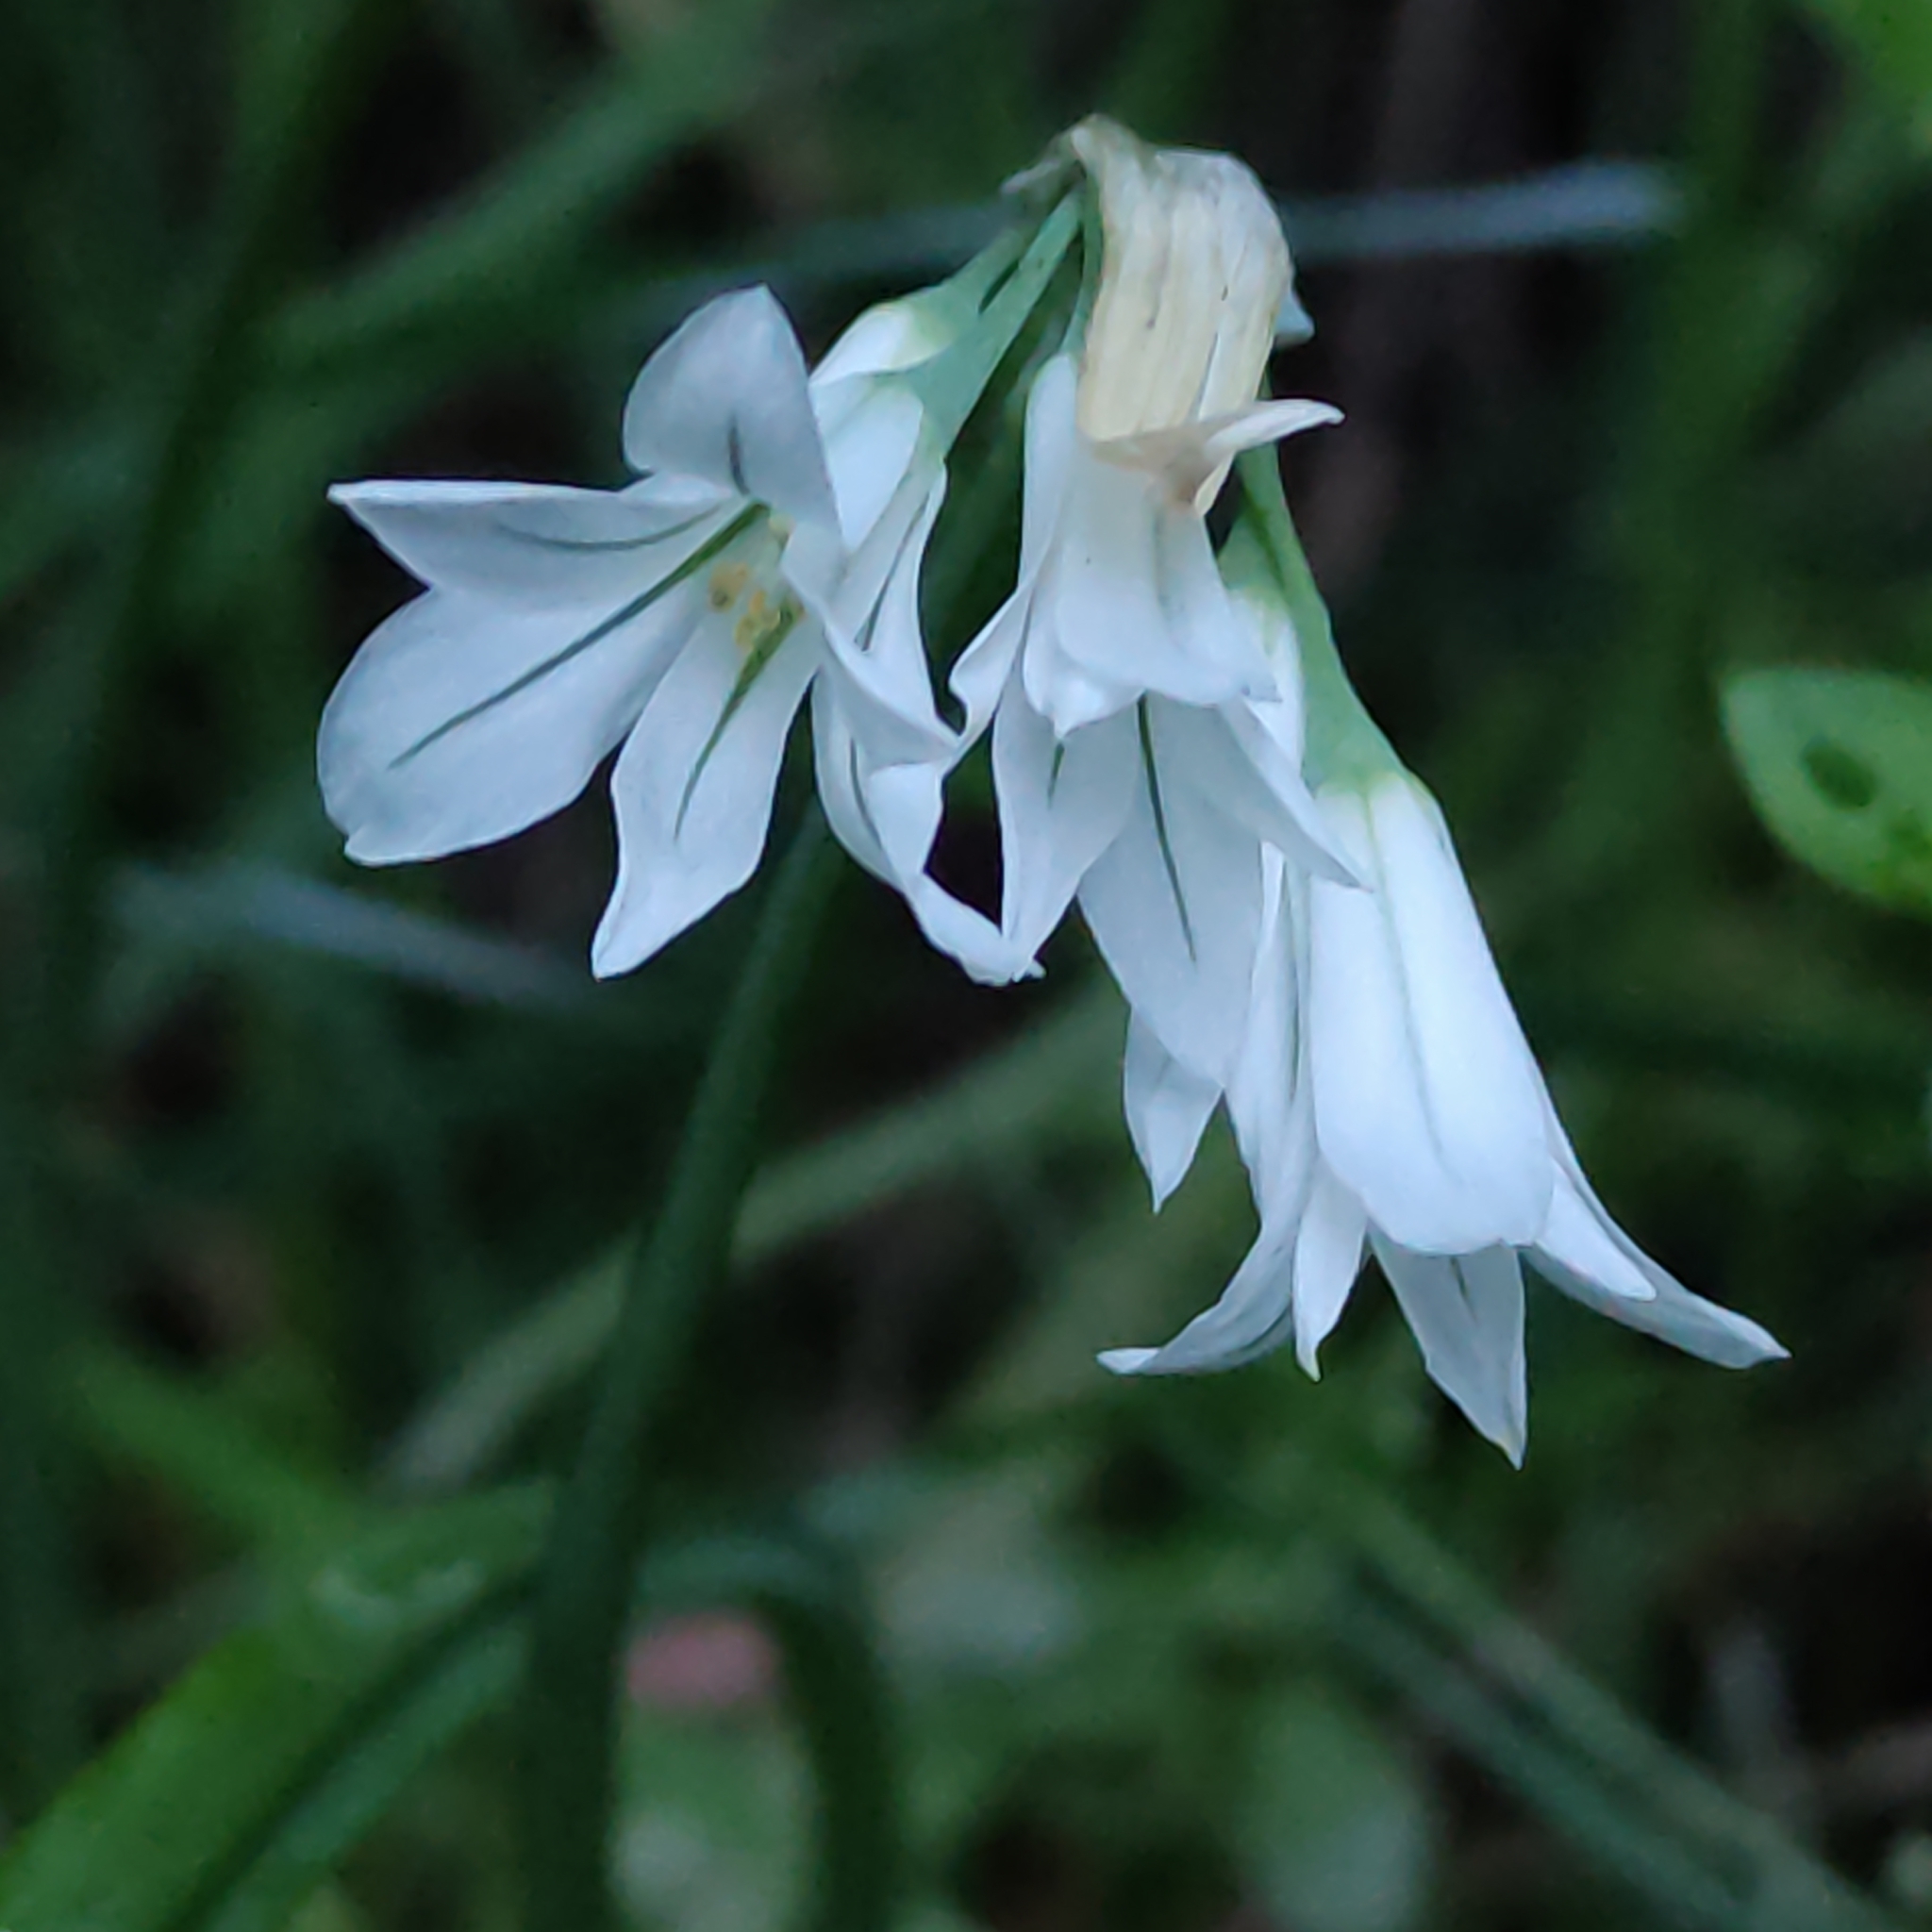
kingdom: Plantae
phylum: Tracheophyta
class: Liliopsida
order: Asparagales
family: Amaryllidaceae
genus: Allium
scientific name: Allium triquetrum
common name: Three-cornered garlic
